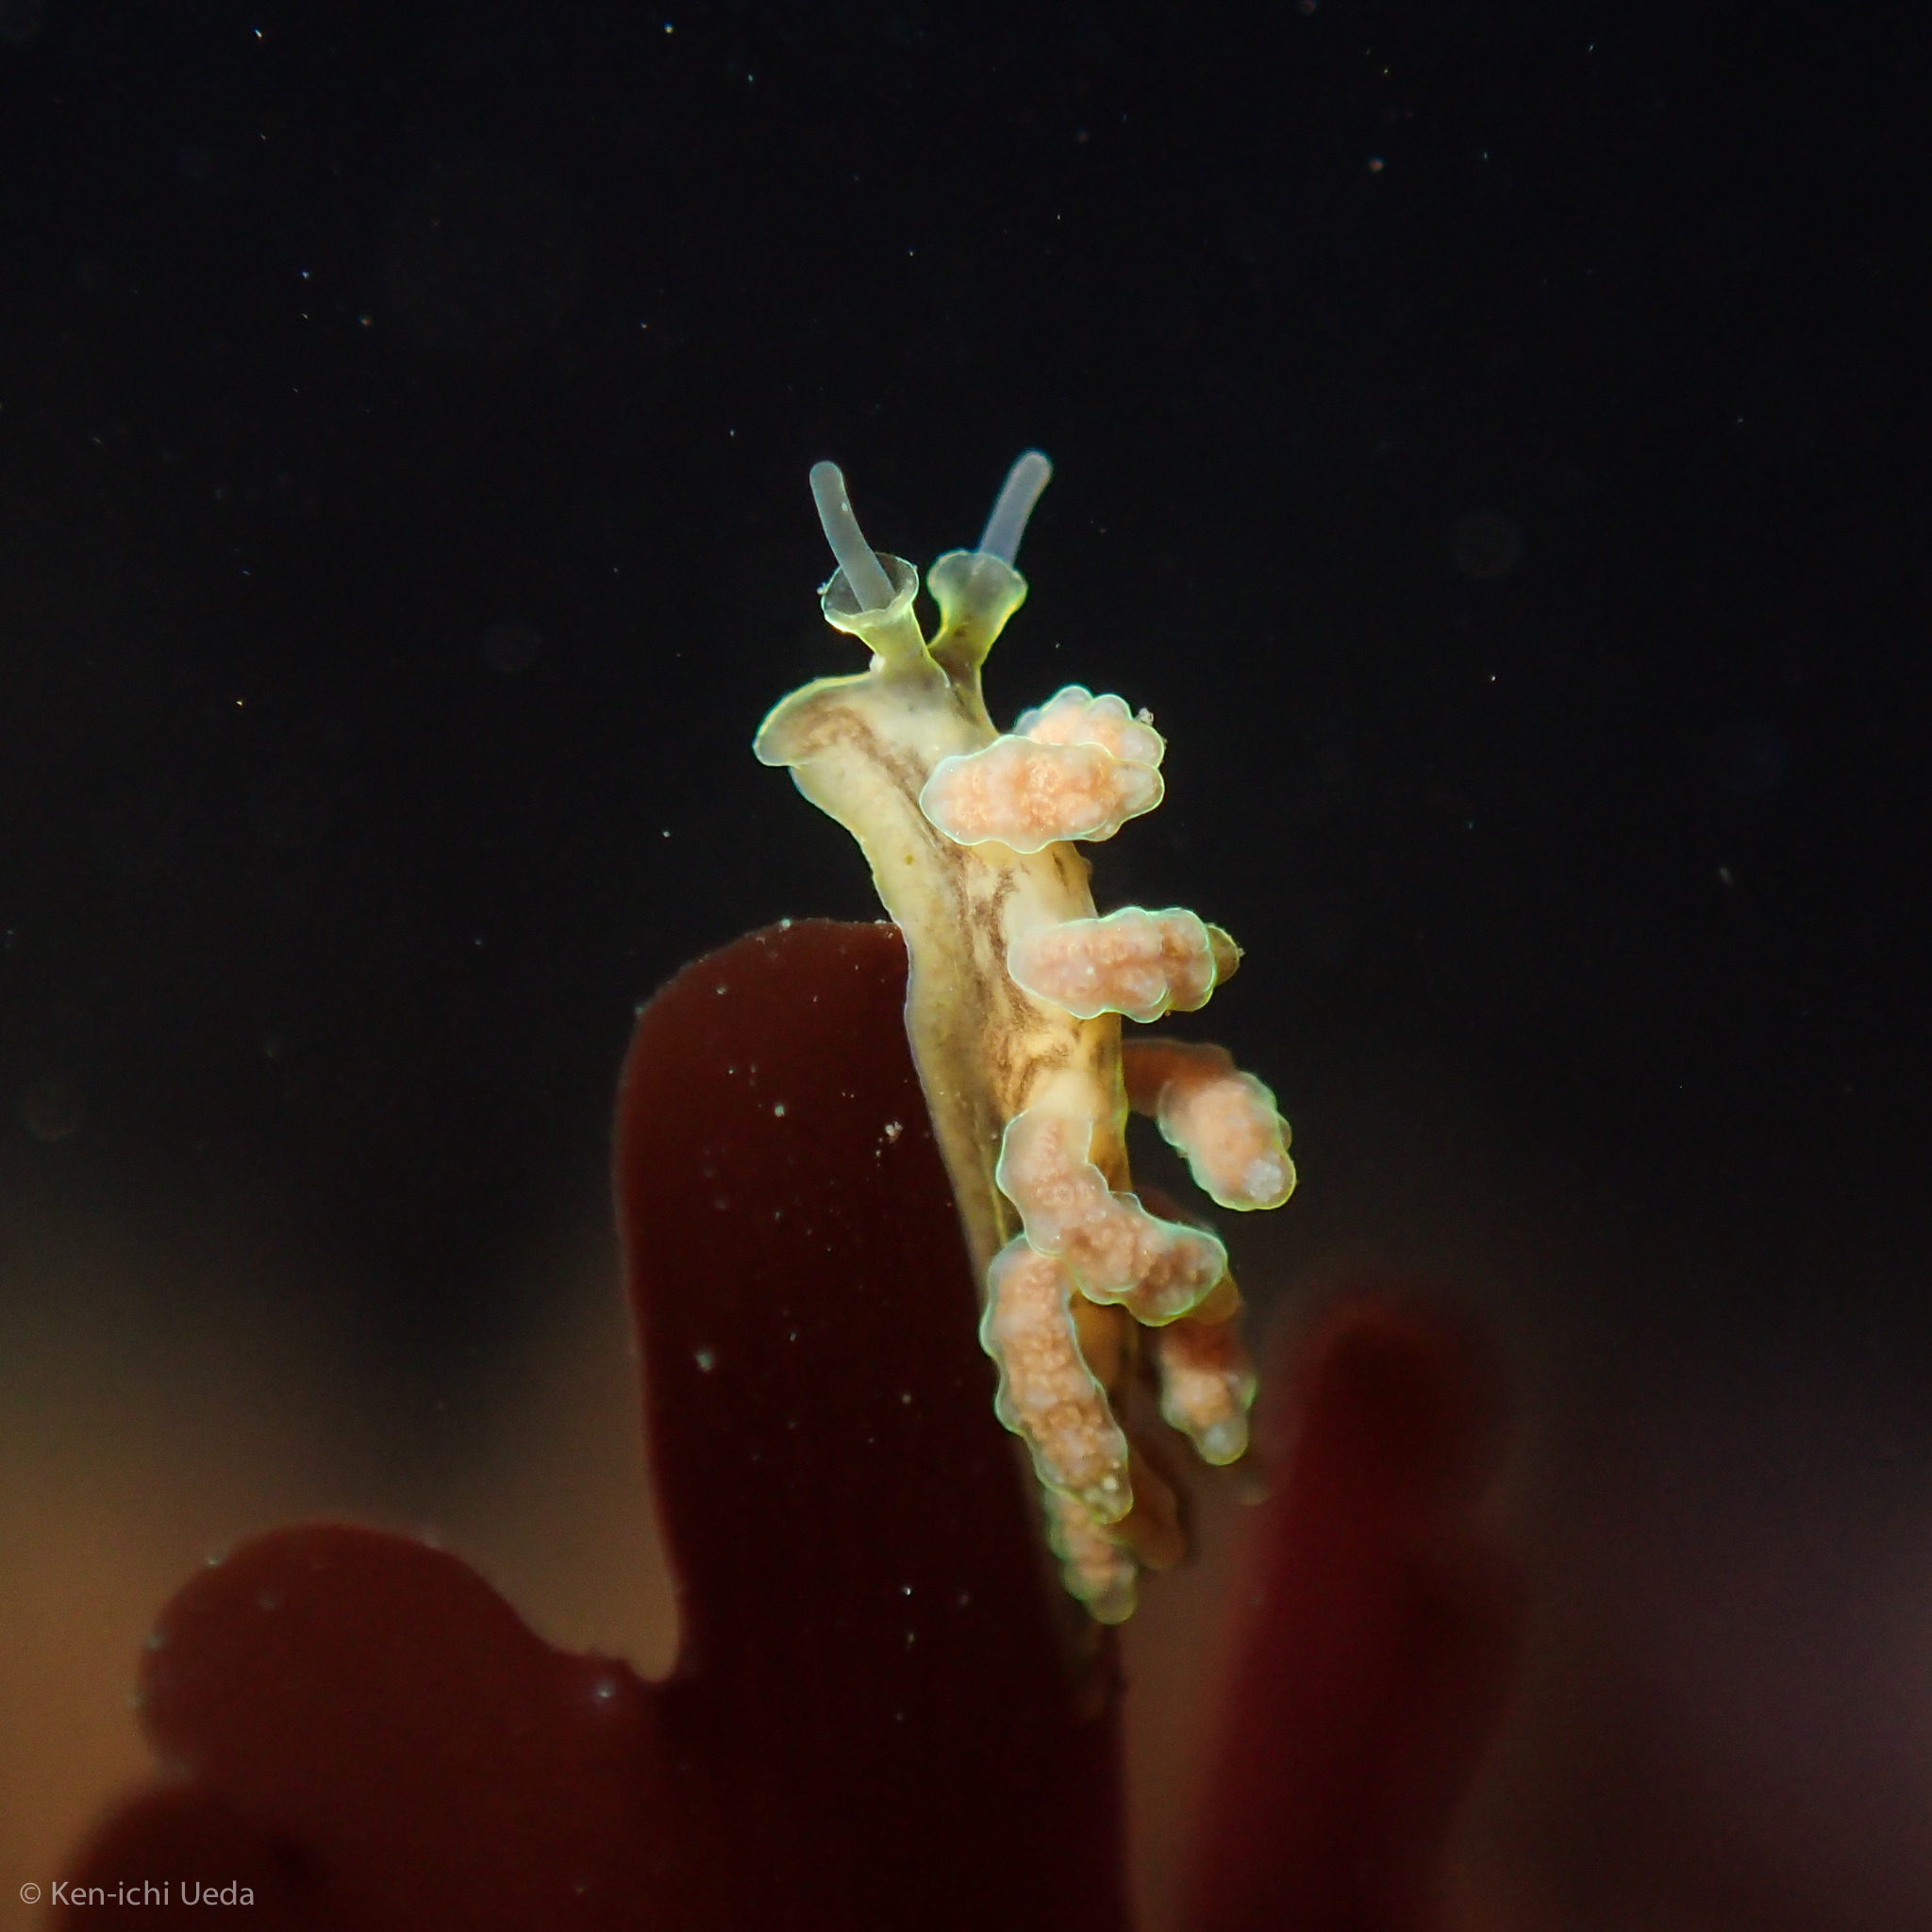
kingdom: Animalia
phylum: Mollusca
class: Gastropoda
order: Nudibranchia
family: Dotidae
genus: Doto
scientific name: Doto columbiana
